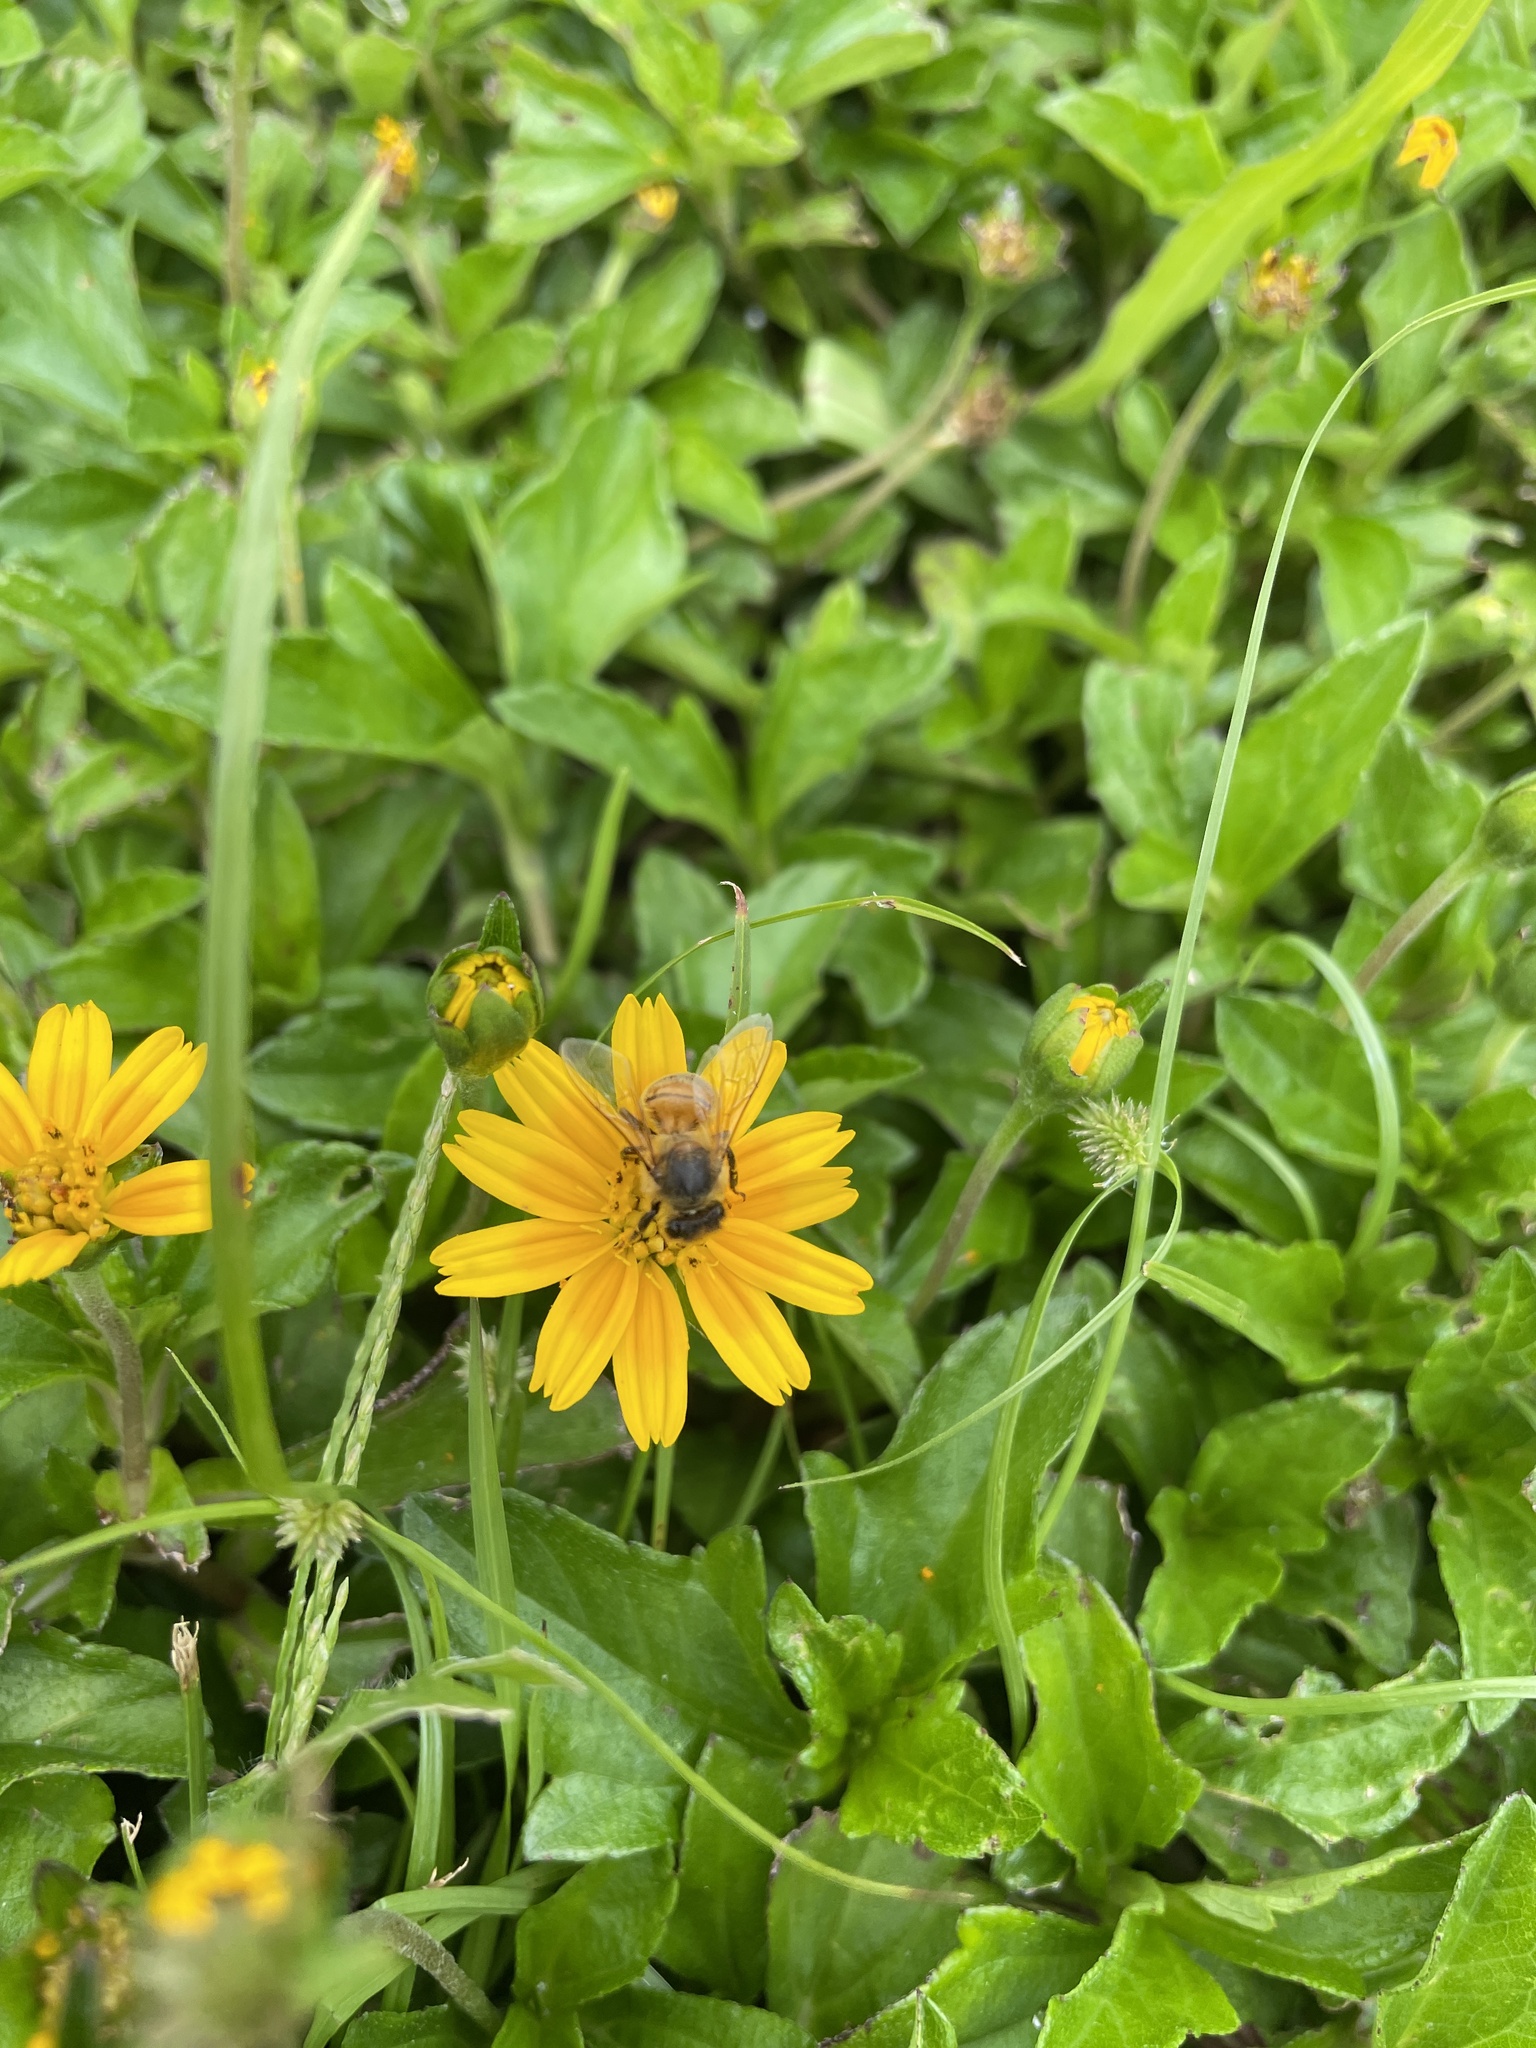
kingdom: Animalia
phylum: Arthropoda
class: Insecta
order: Hymenoptera
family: Apidae
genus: Apis
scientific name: Apis mellifera
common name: Honey bee
